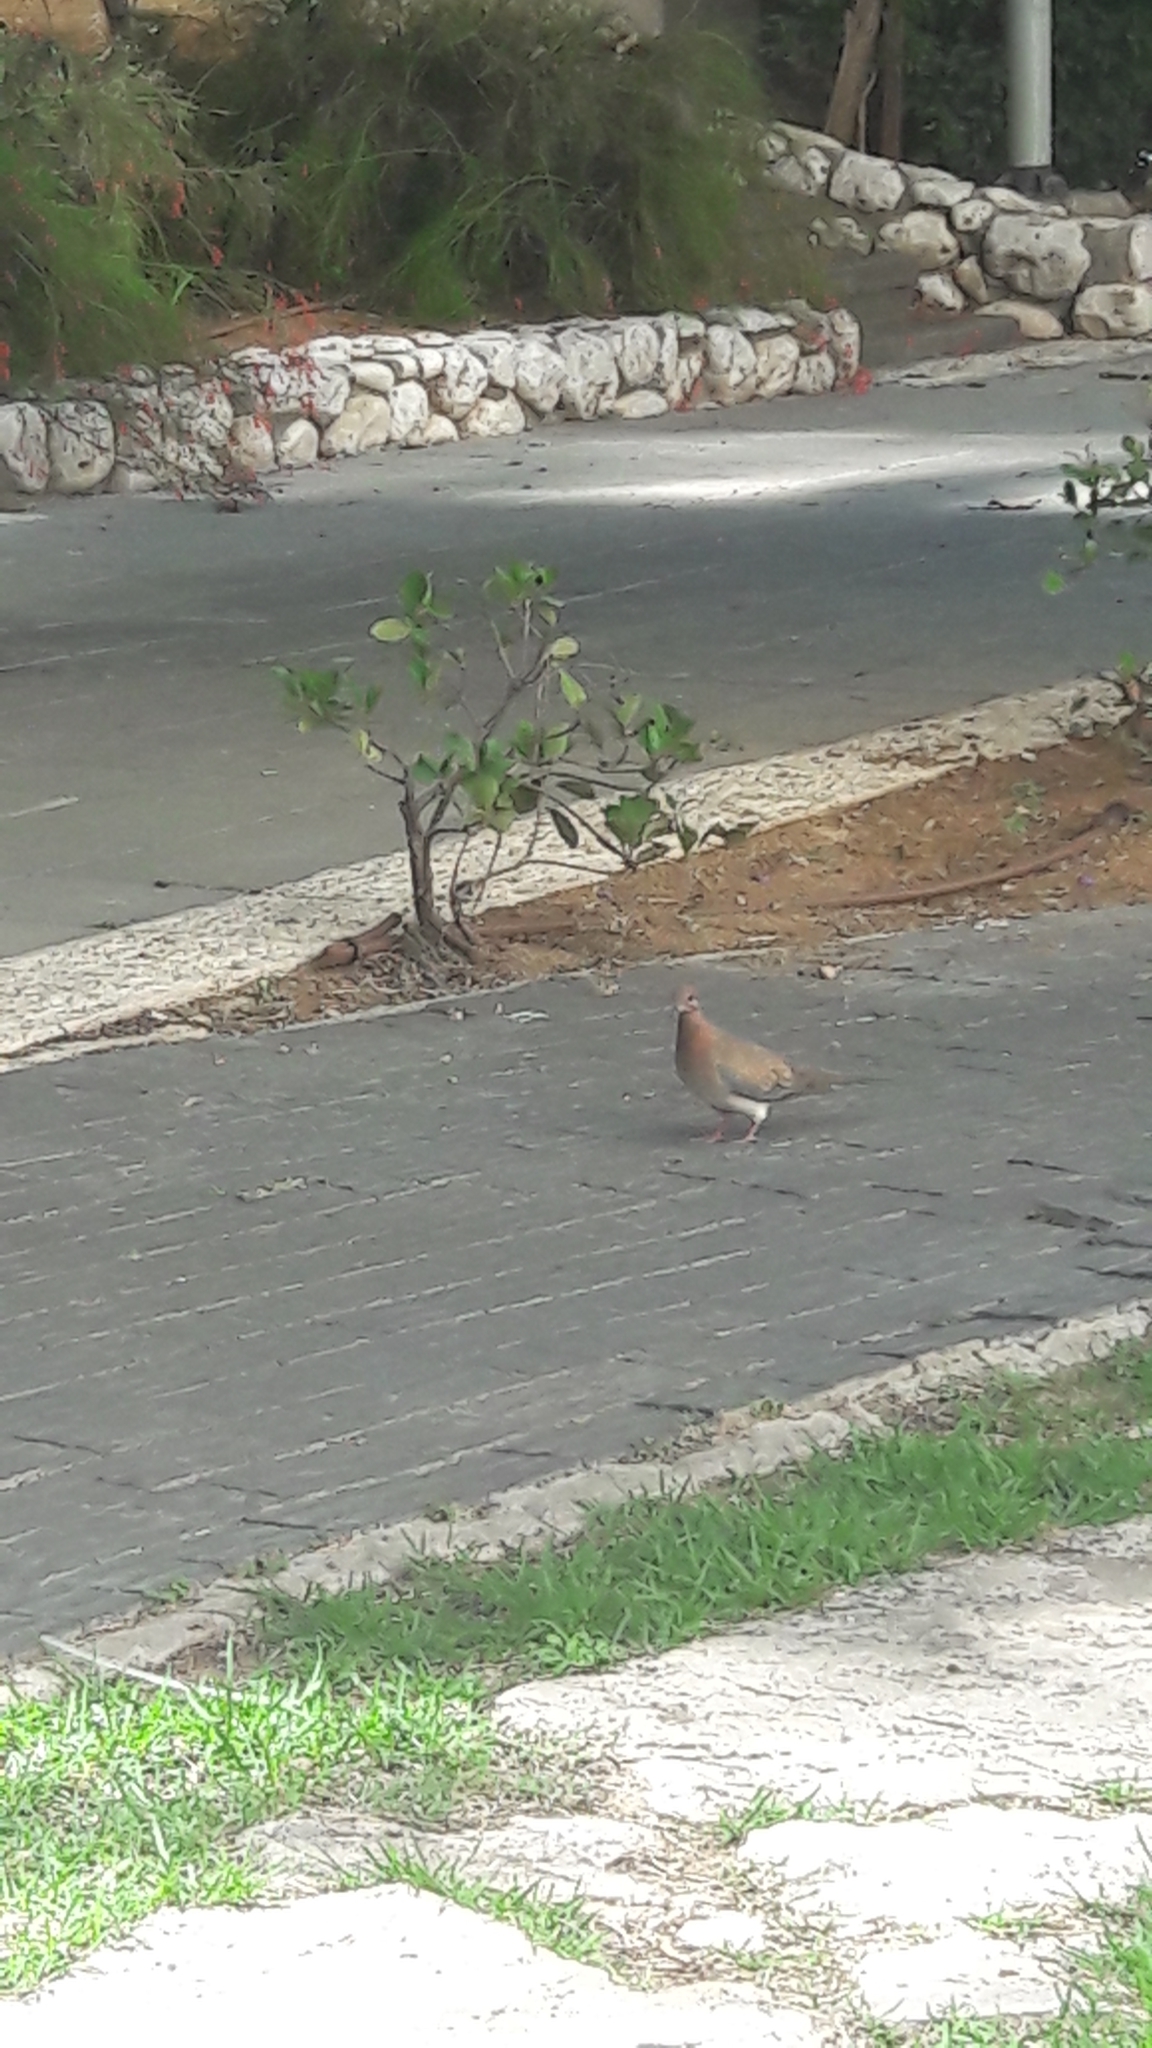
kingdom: Animalia
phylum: Chordata
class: Aves
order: Columbiformes
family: Columbidae
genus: Spilopelia
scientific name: Spilopelia senegalensis
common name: Laughing dove
